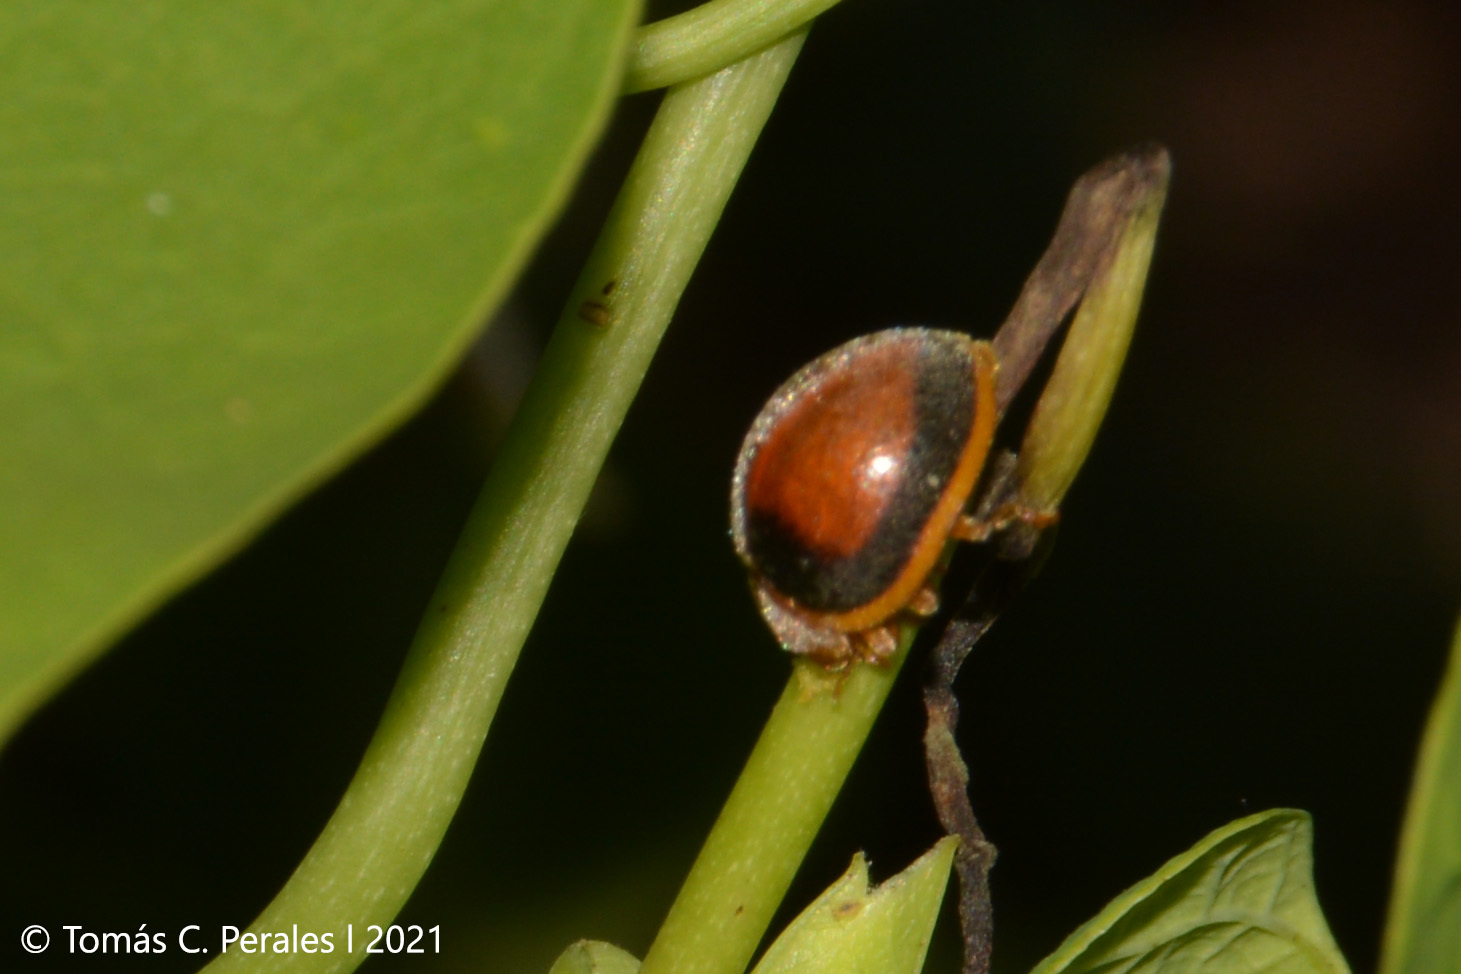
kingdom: Animalia
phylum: Arthropoda
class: Insecta
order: Coleoptera
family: Coccinellidae
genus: Adira
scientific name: Adira
